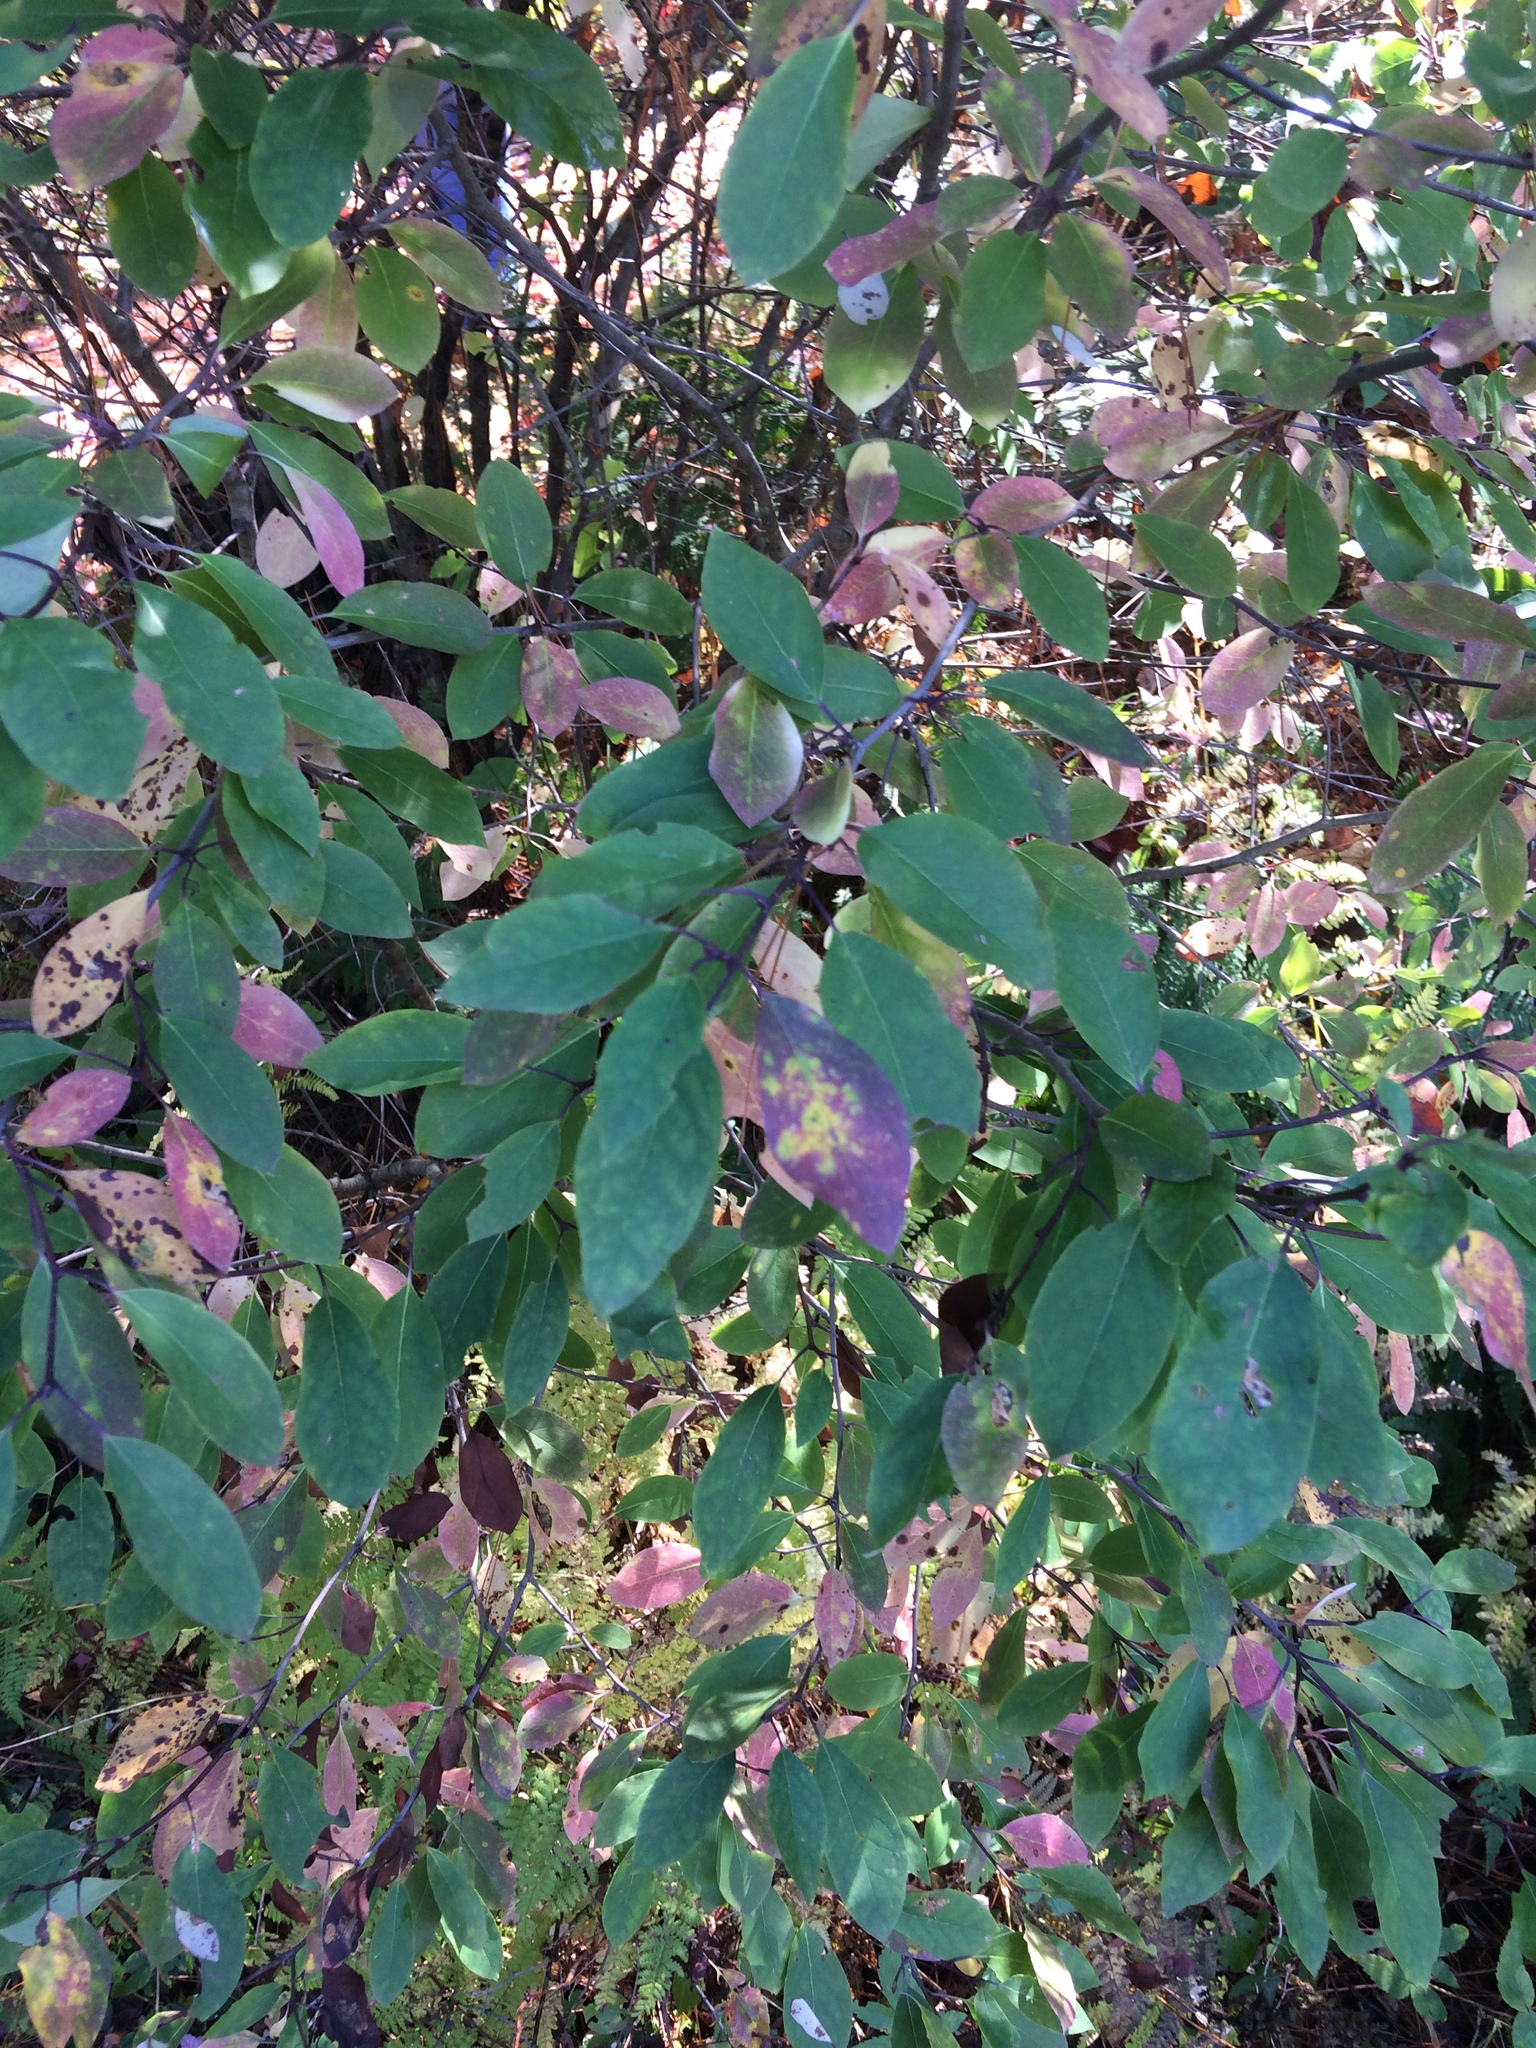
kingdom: Plantae
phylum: Tracheophyta
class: Magnoliopsida
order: Aquifoliales
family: Aquifoliaceae
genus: Ilex
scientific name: Ilex mucronata
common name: Catberry
